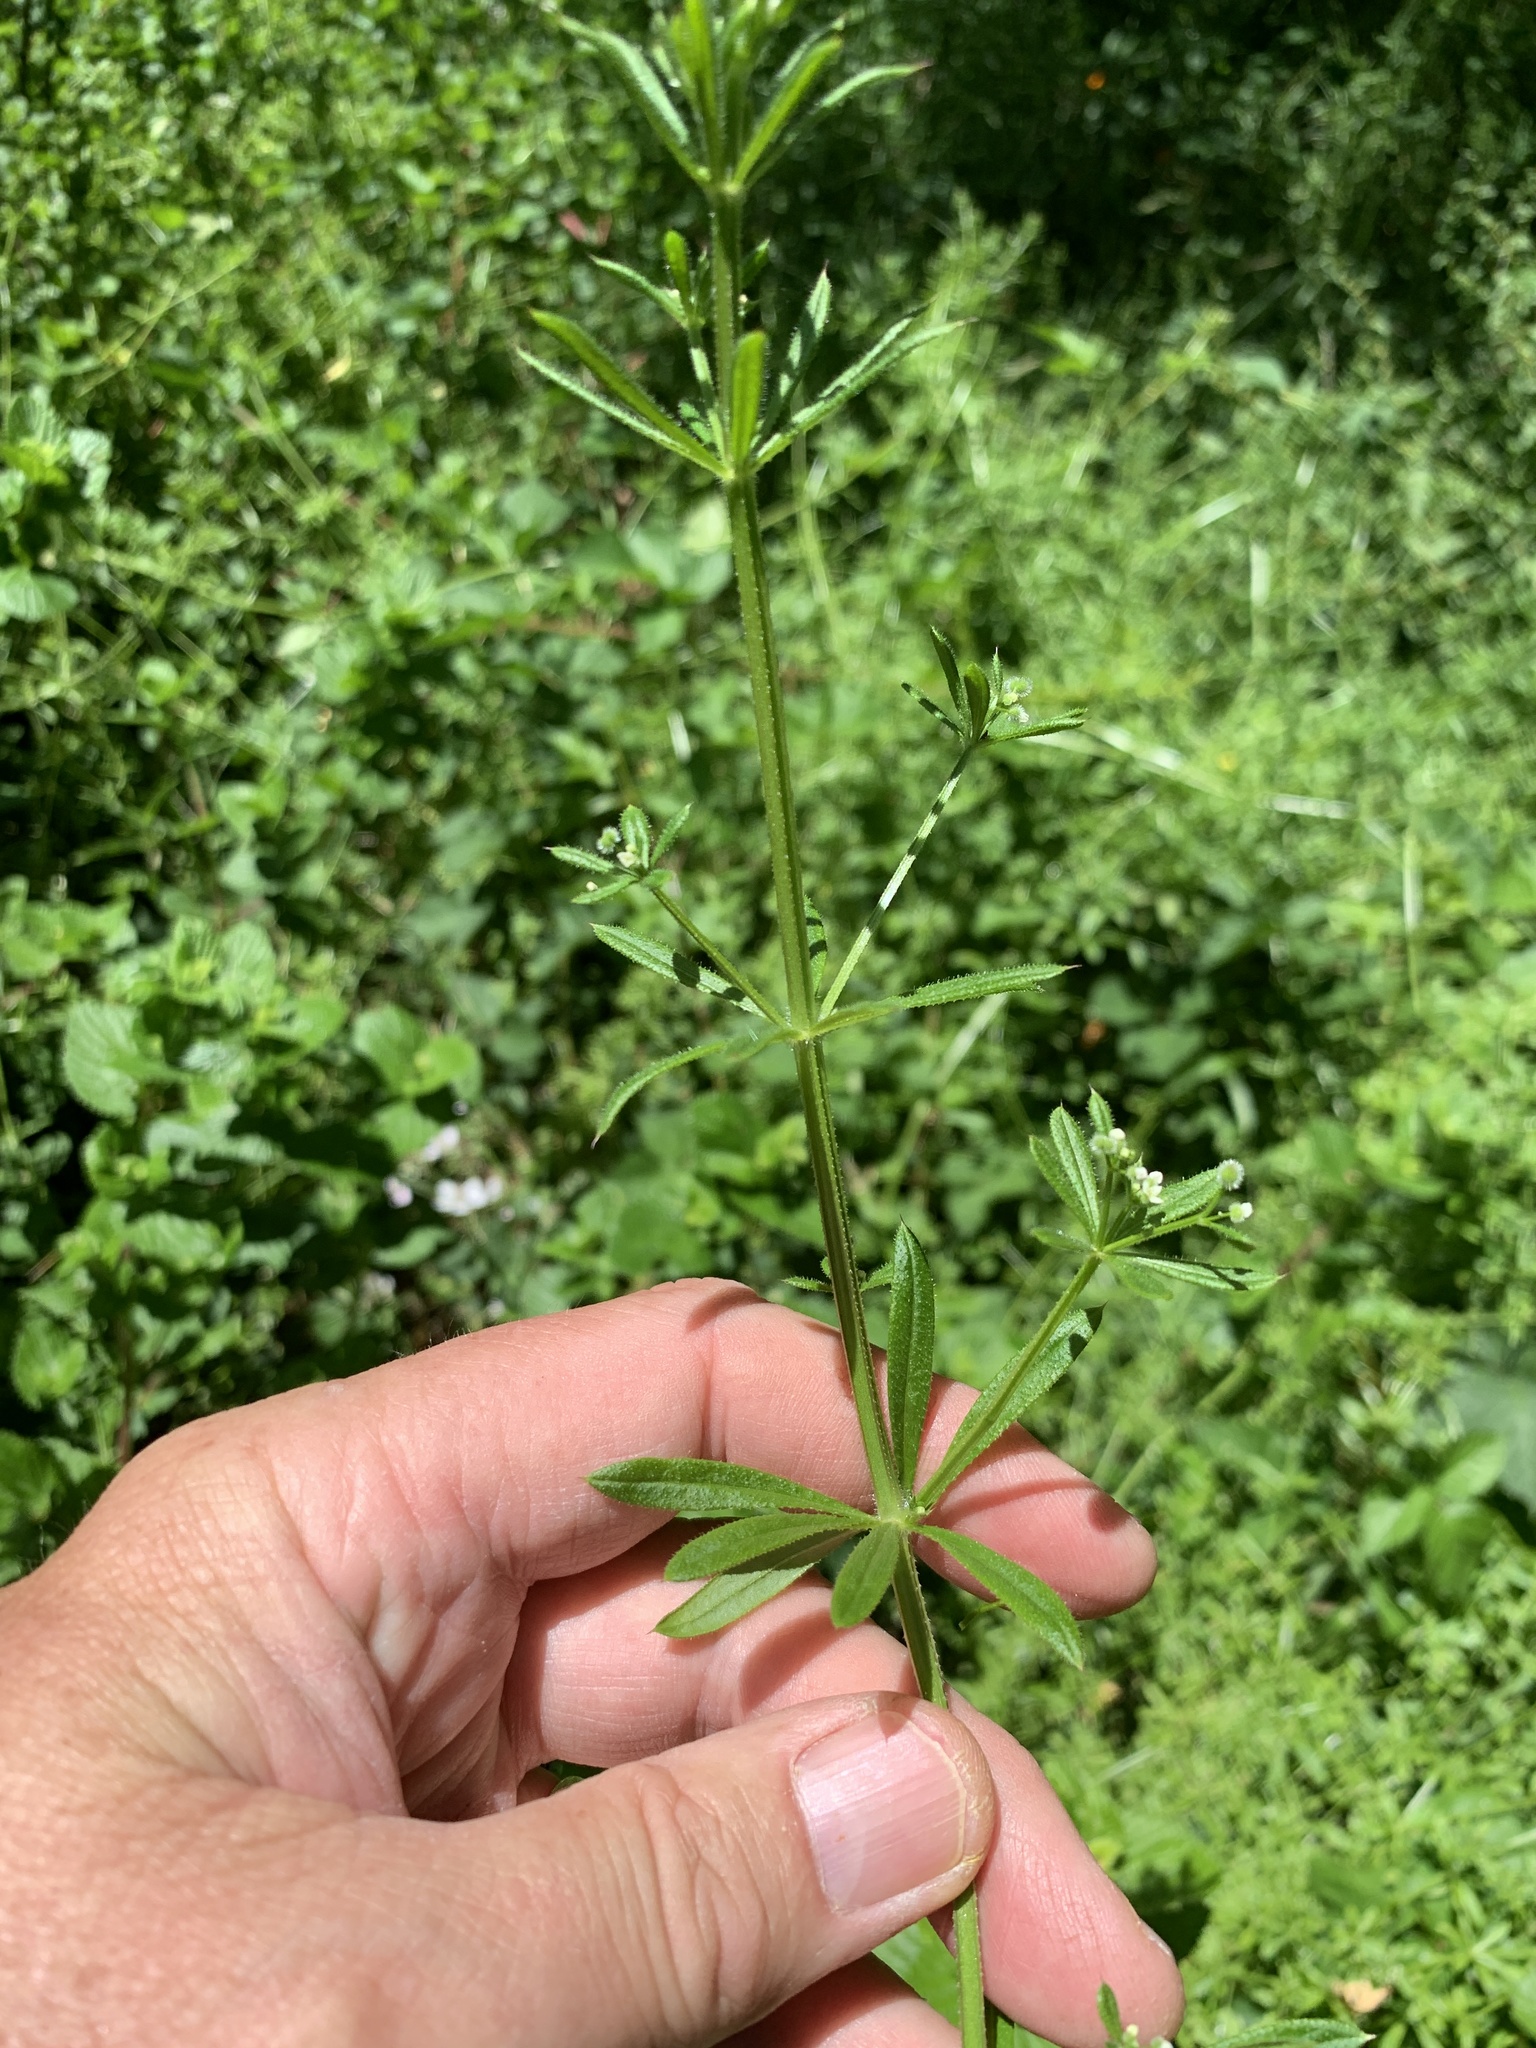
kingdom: Plantae
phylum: Tracheophyta
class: Magnoliopsida
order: Gentianales
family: Rubiaceae
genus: Galium
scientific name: Galium aparine
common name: Cleavers
